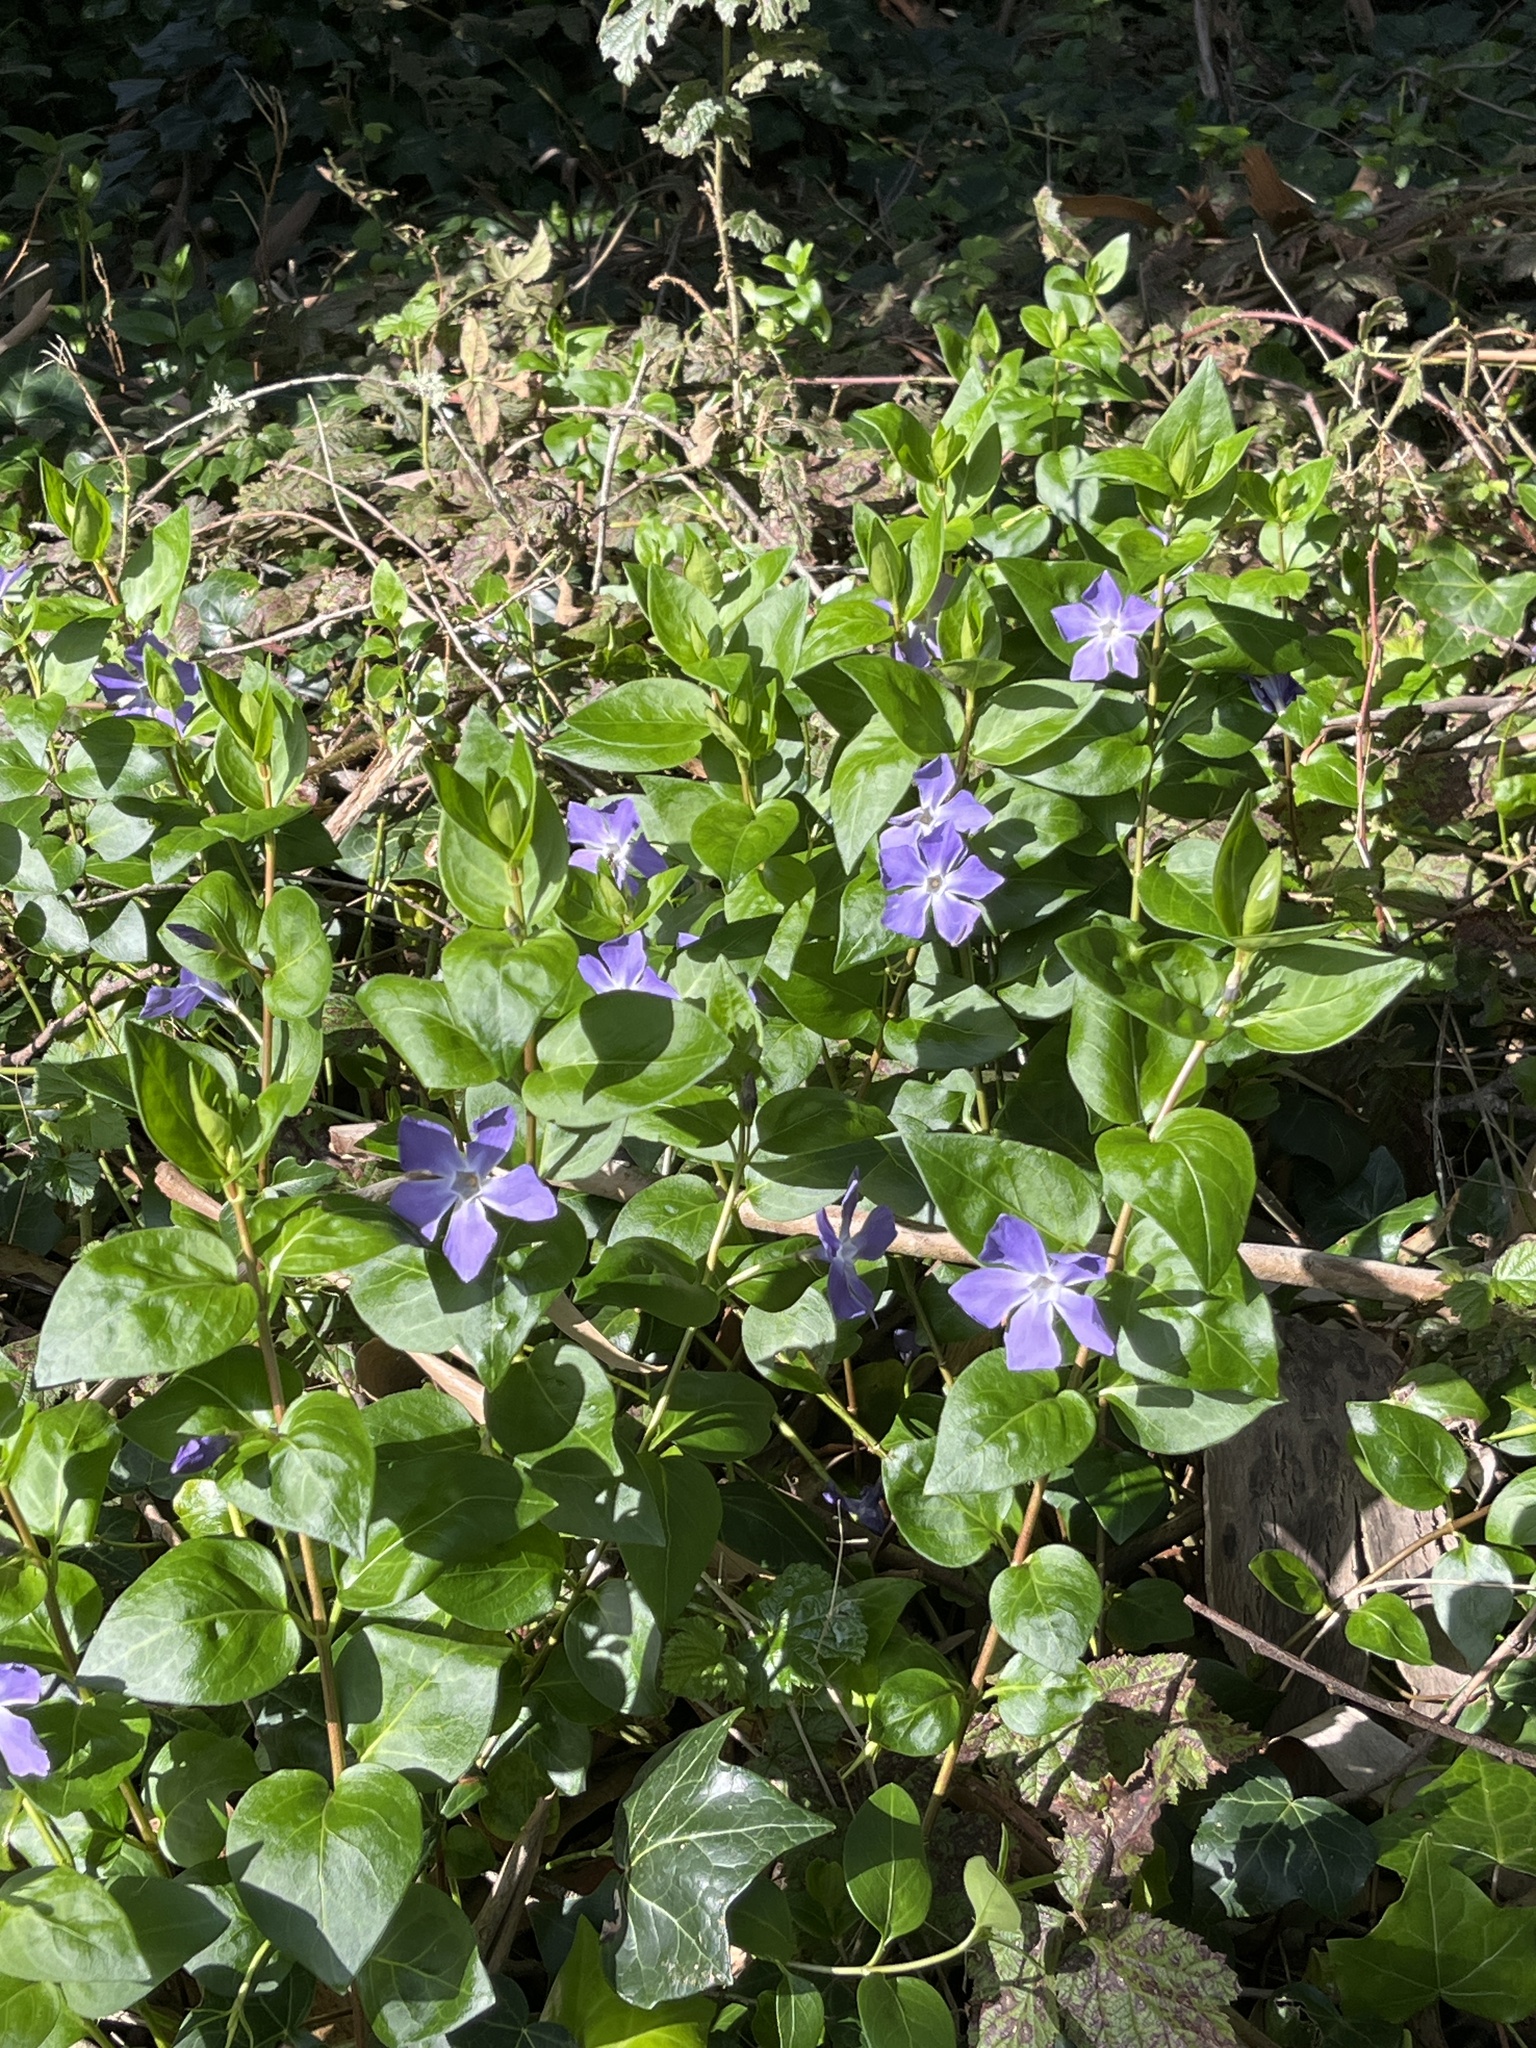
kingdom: Plantae
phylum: Tracheophyta
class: Magnoliopsida
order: Gentianales
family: Apocynaceae
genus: Vinca
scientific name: Vinca major
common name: Greater periwinkle
